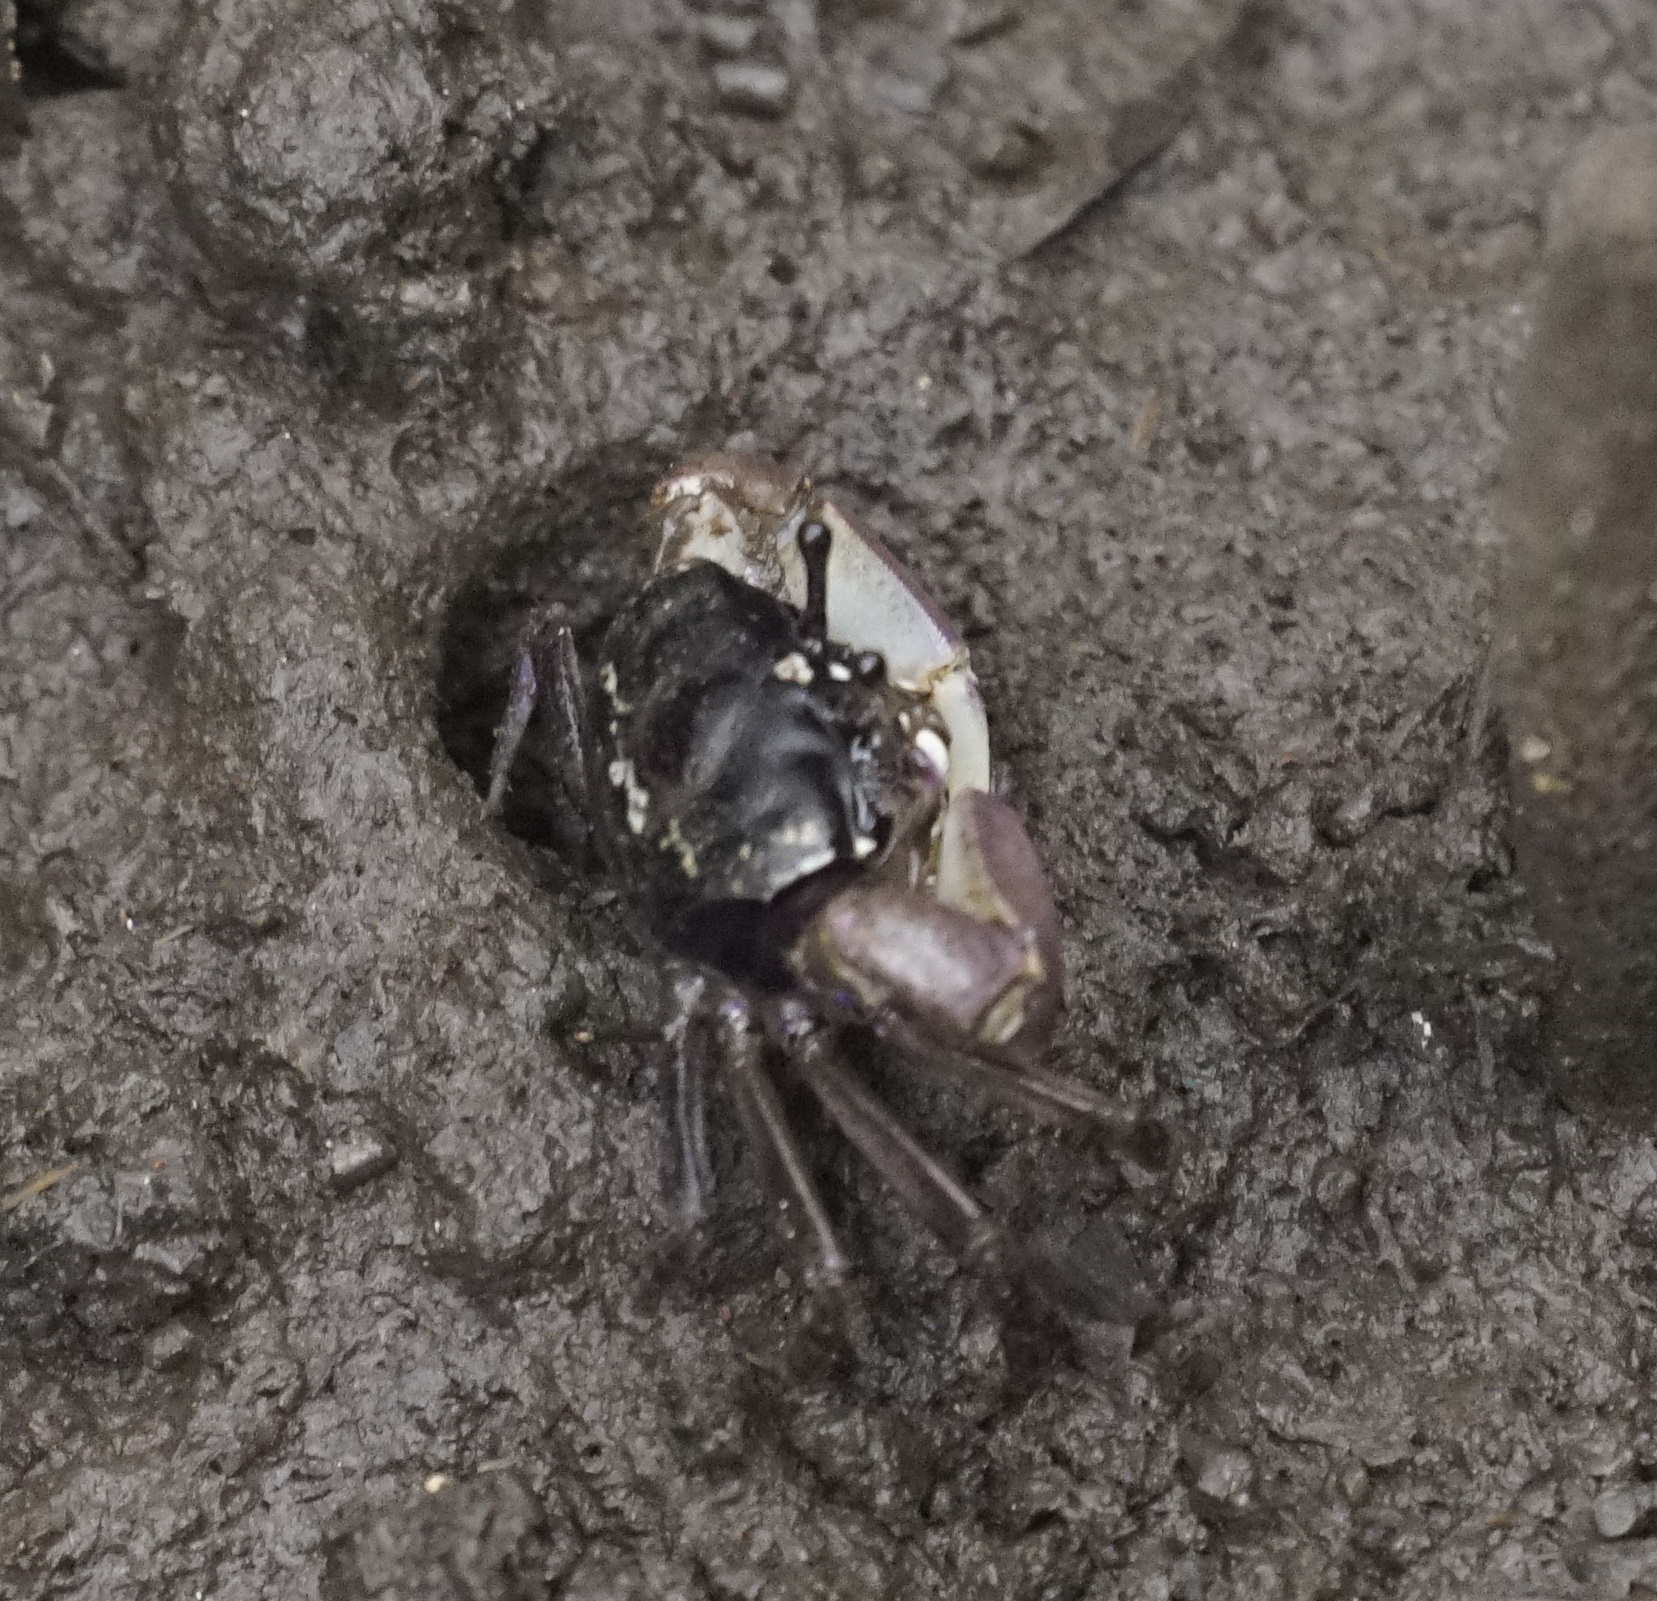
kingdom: Animalia
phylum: Arthropoda
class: Malacostraca
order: Decapoda
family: Heloeciidae
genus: Heloecius
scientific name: Heloecius cordiformis
